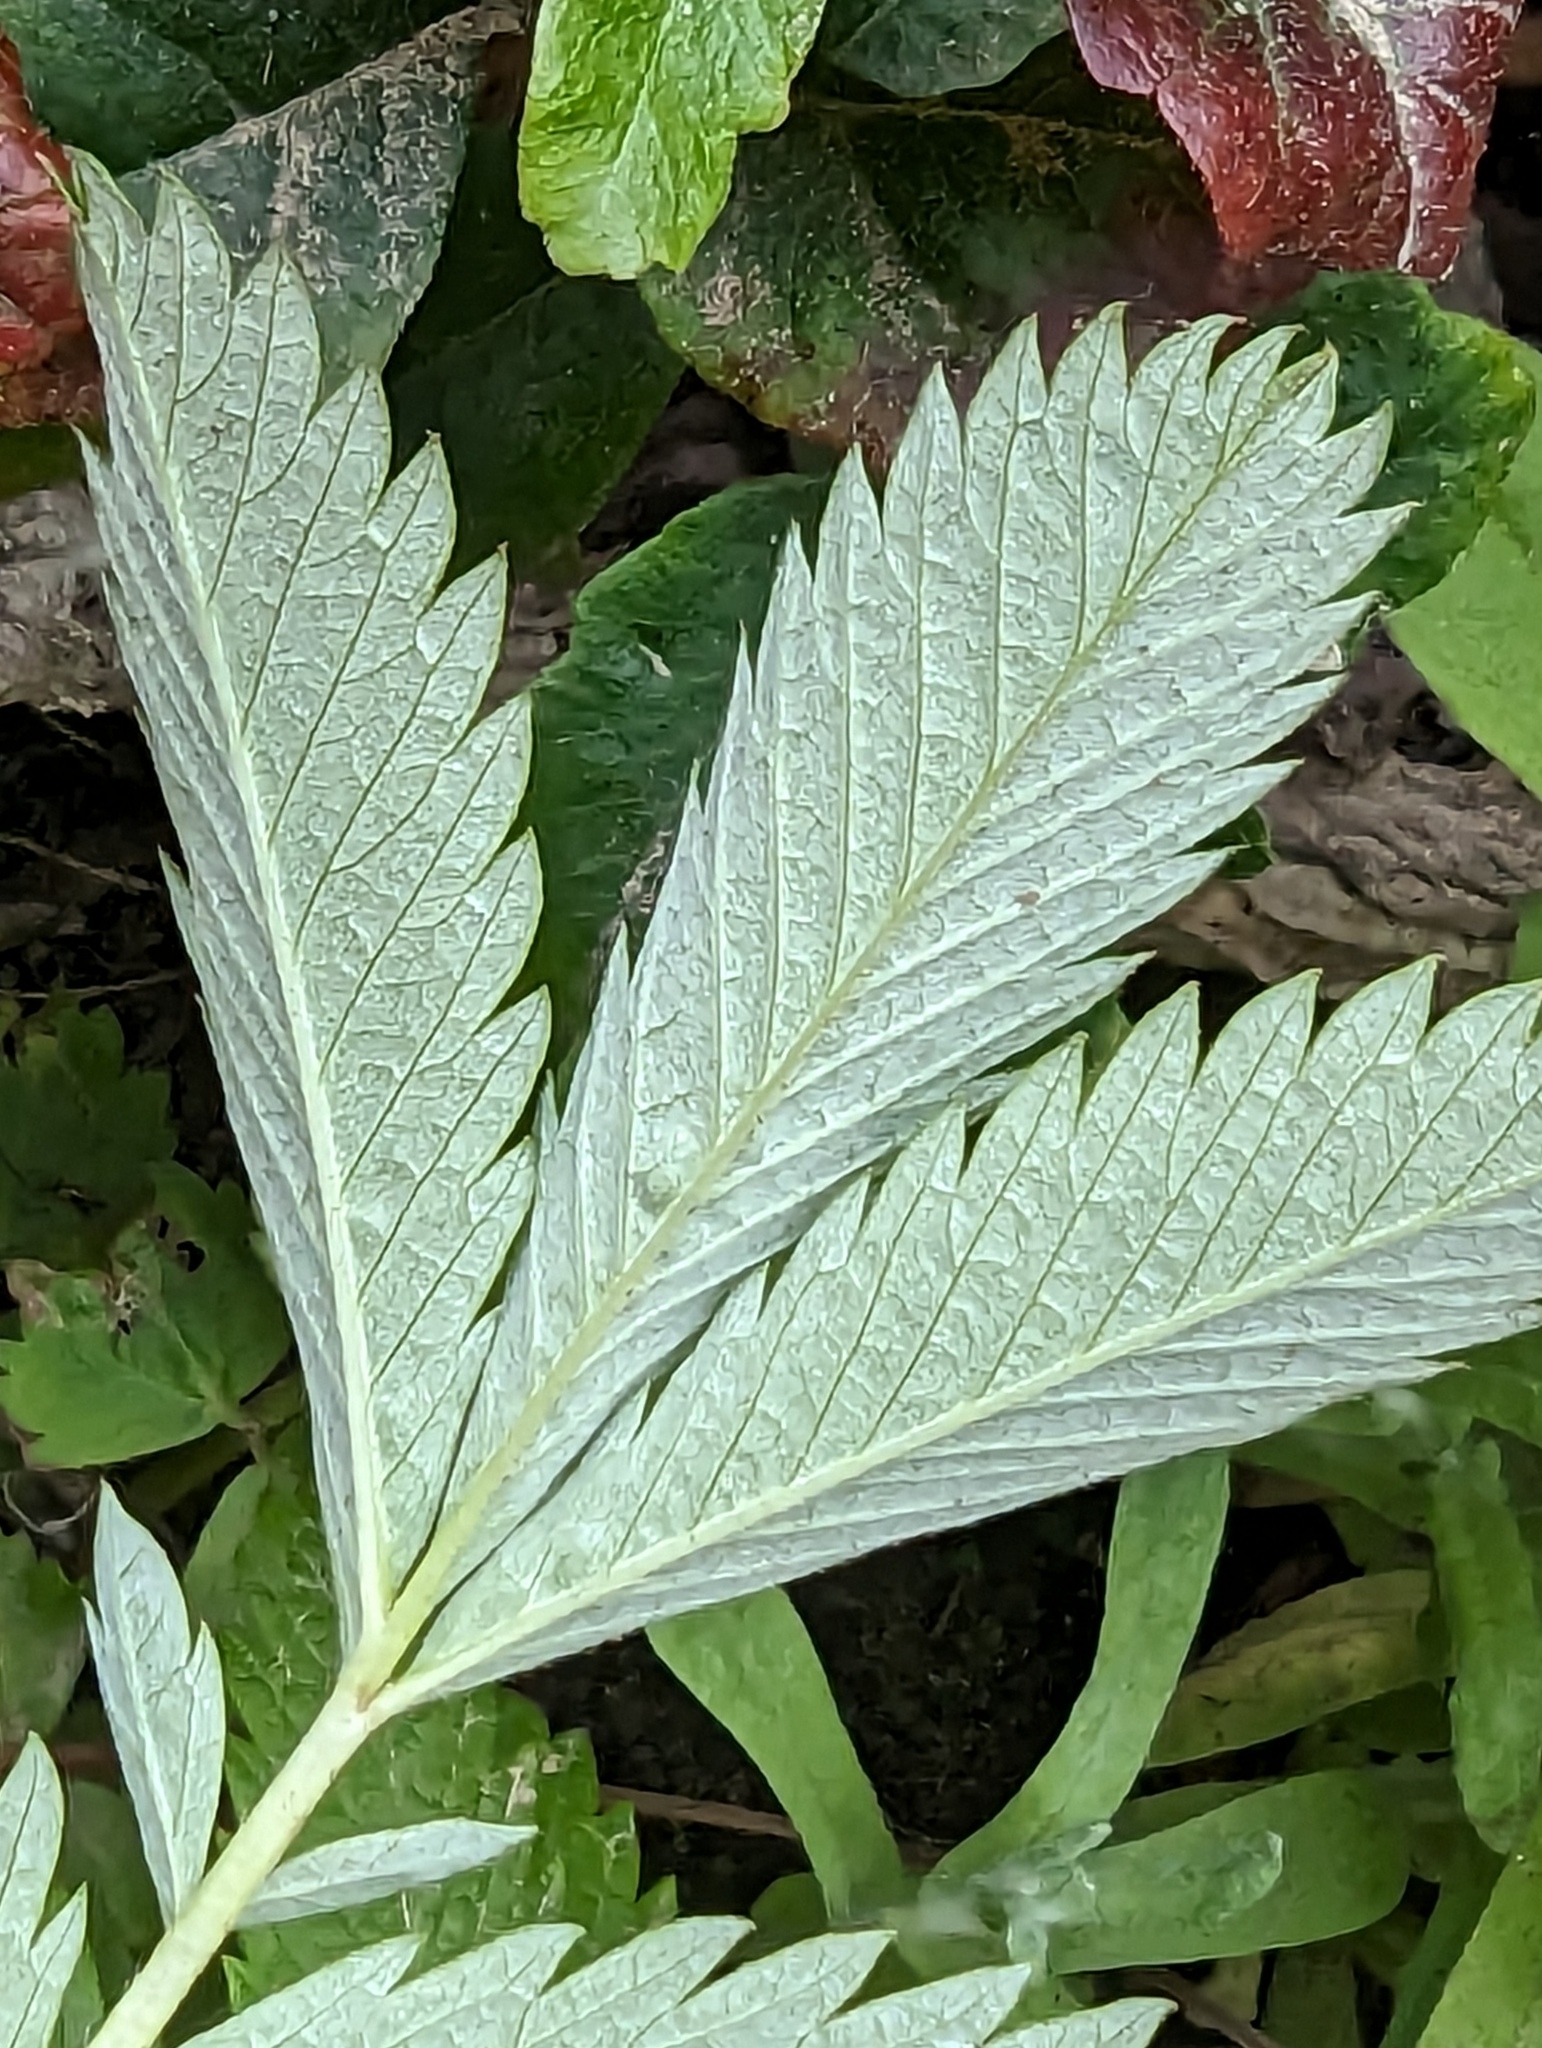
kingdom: Plantae
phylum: Tracheophyta
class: Magnoliopsida
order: Rosales
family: Rosaceae
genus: Argentina
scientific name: Argentina anserina
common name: Common silverweed
